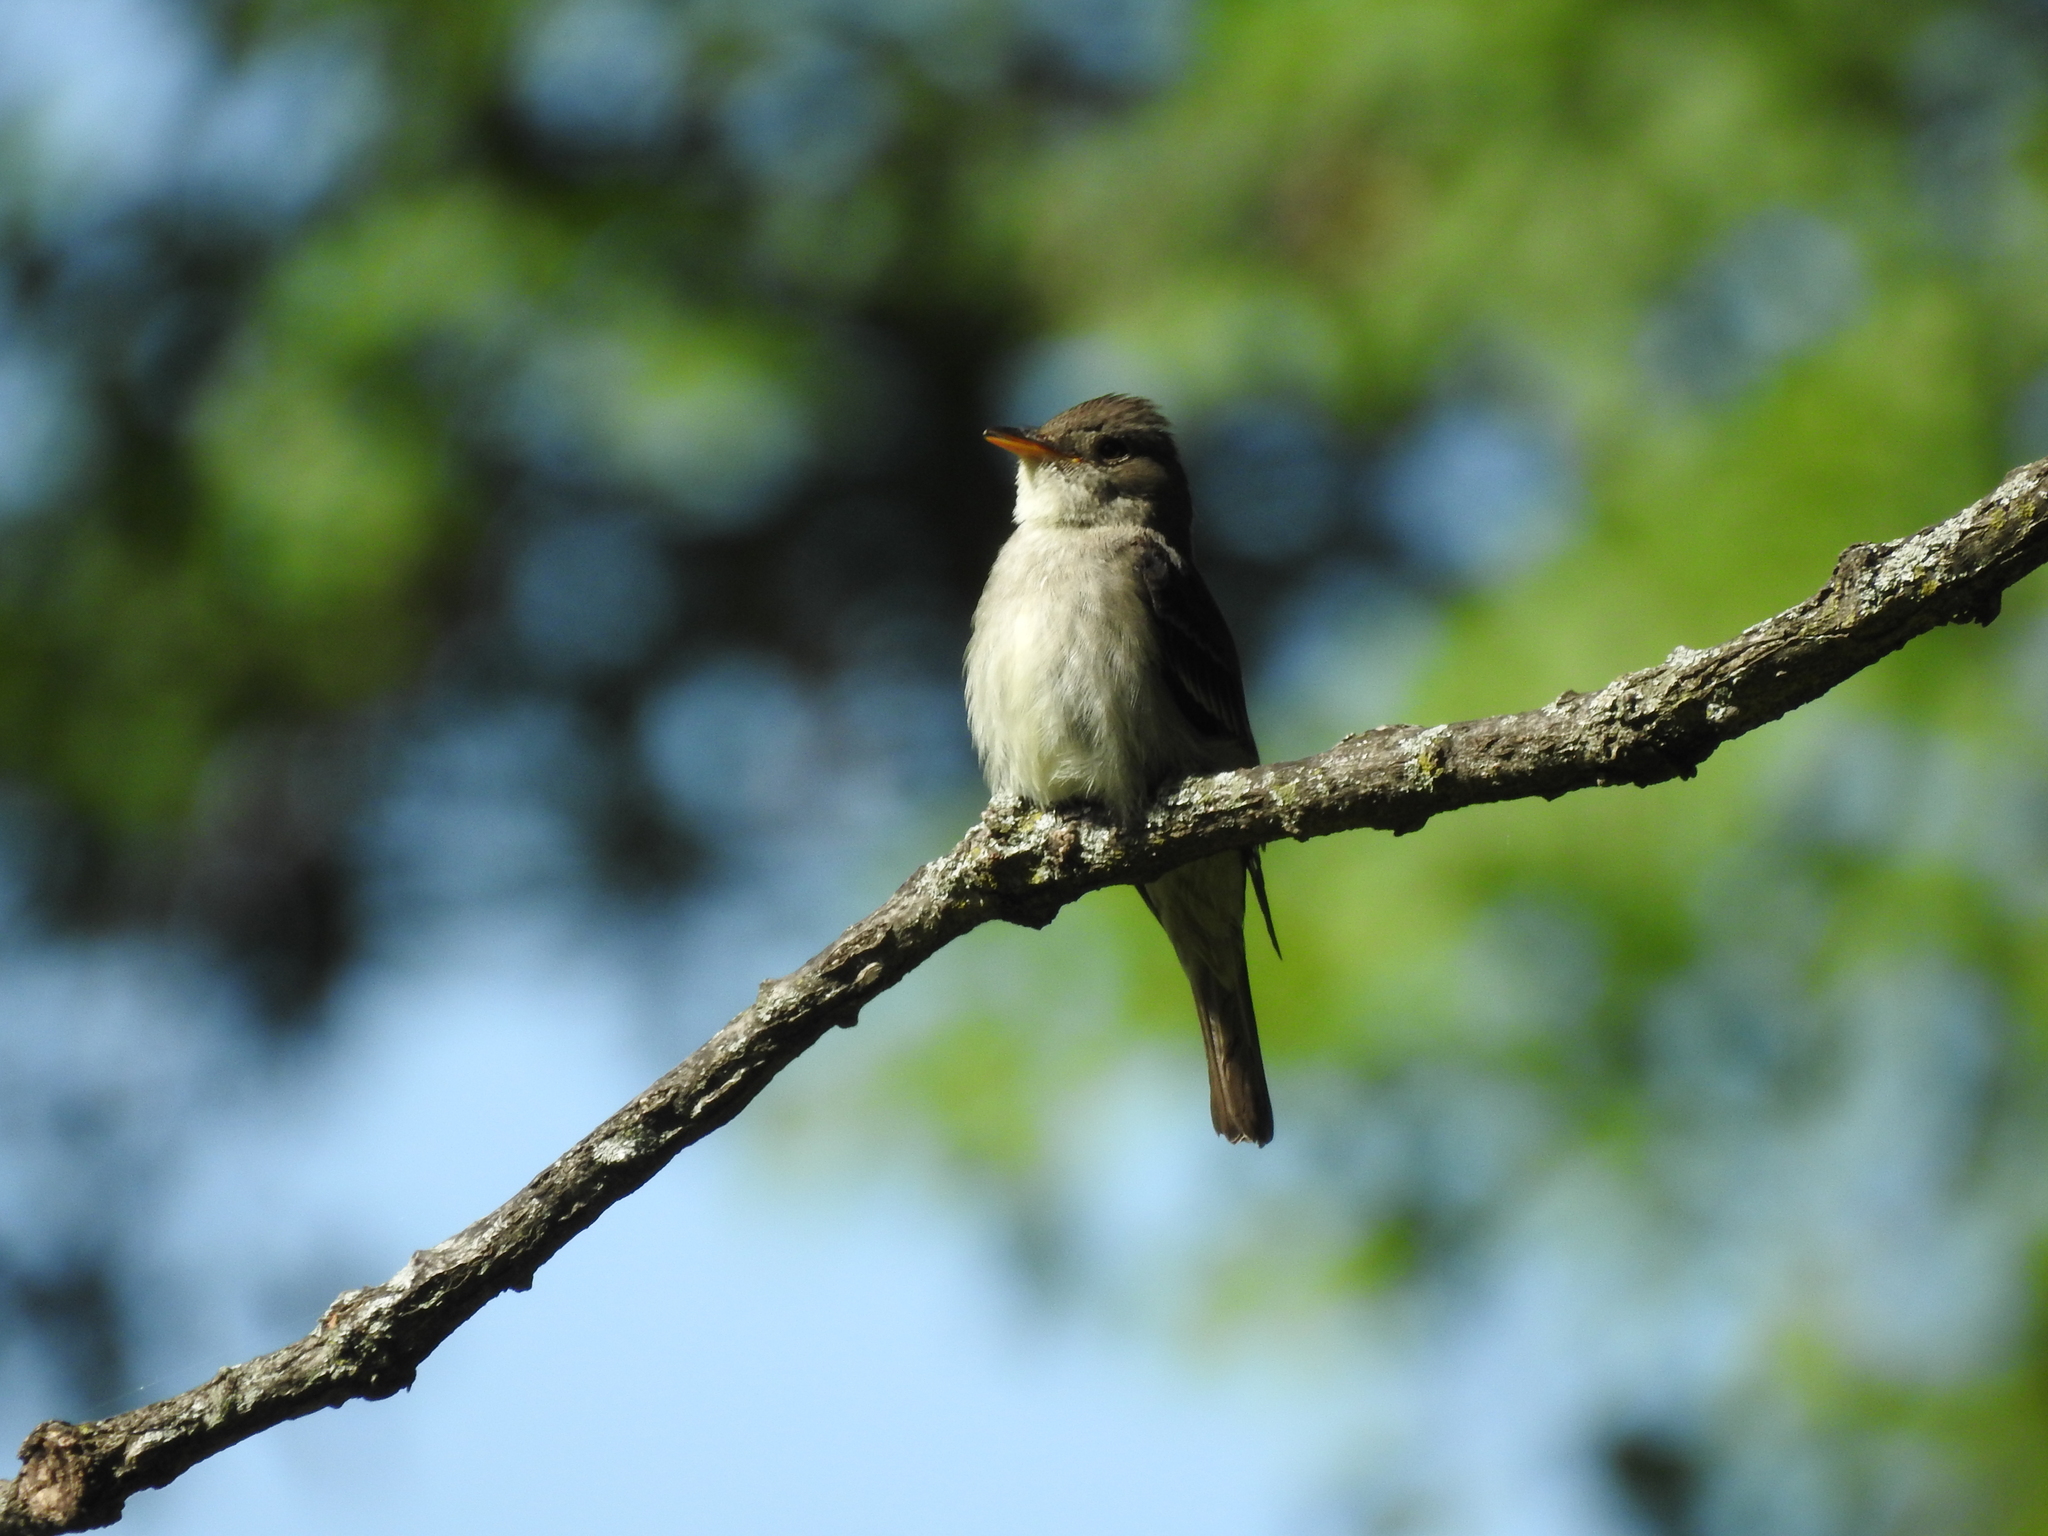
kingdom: Animalia
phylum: Chordata
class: Aves
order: Passeriformes
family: Tyrannidae
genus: Contopus
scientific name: Contopus virens
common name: Eastern wood-pewee
